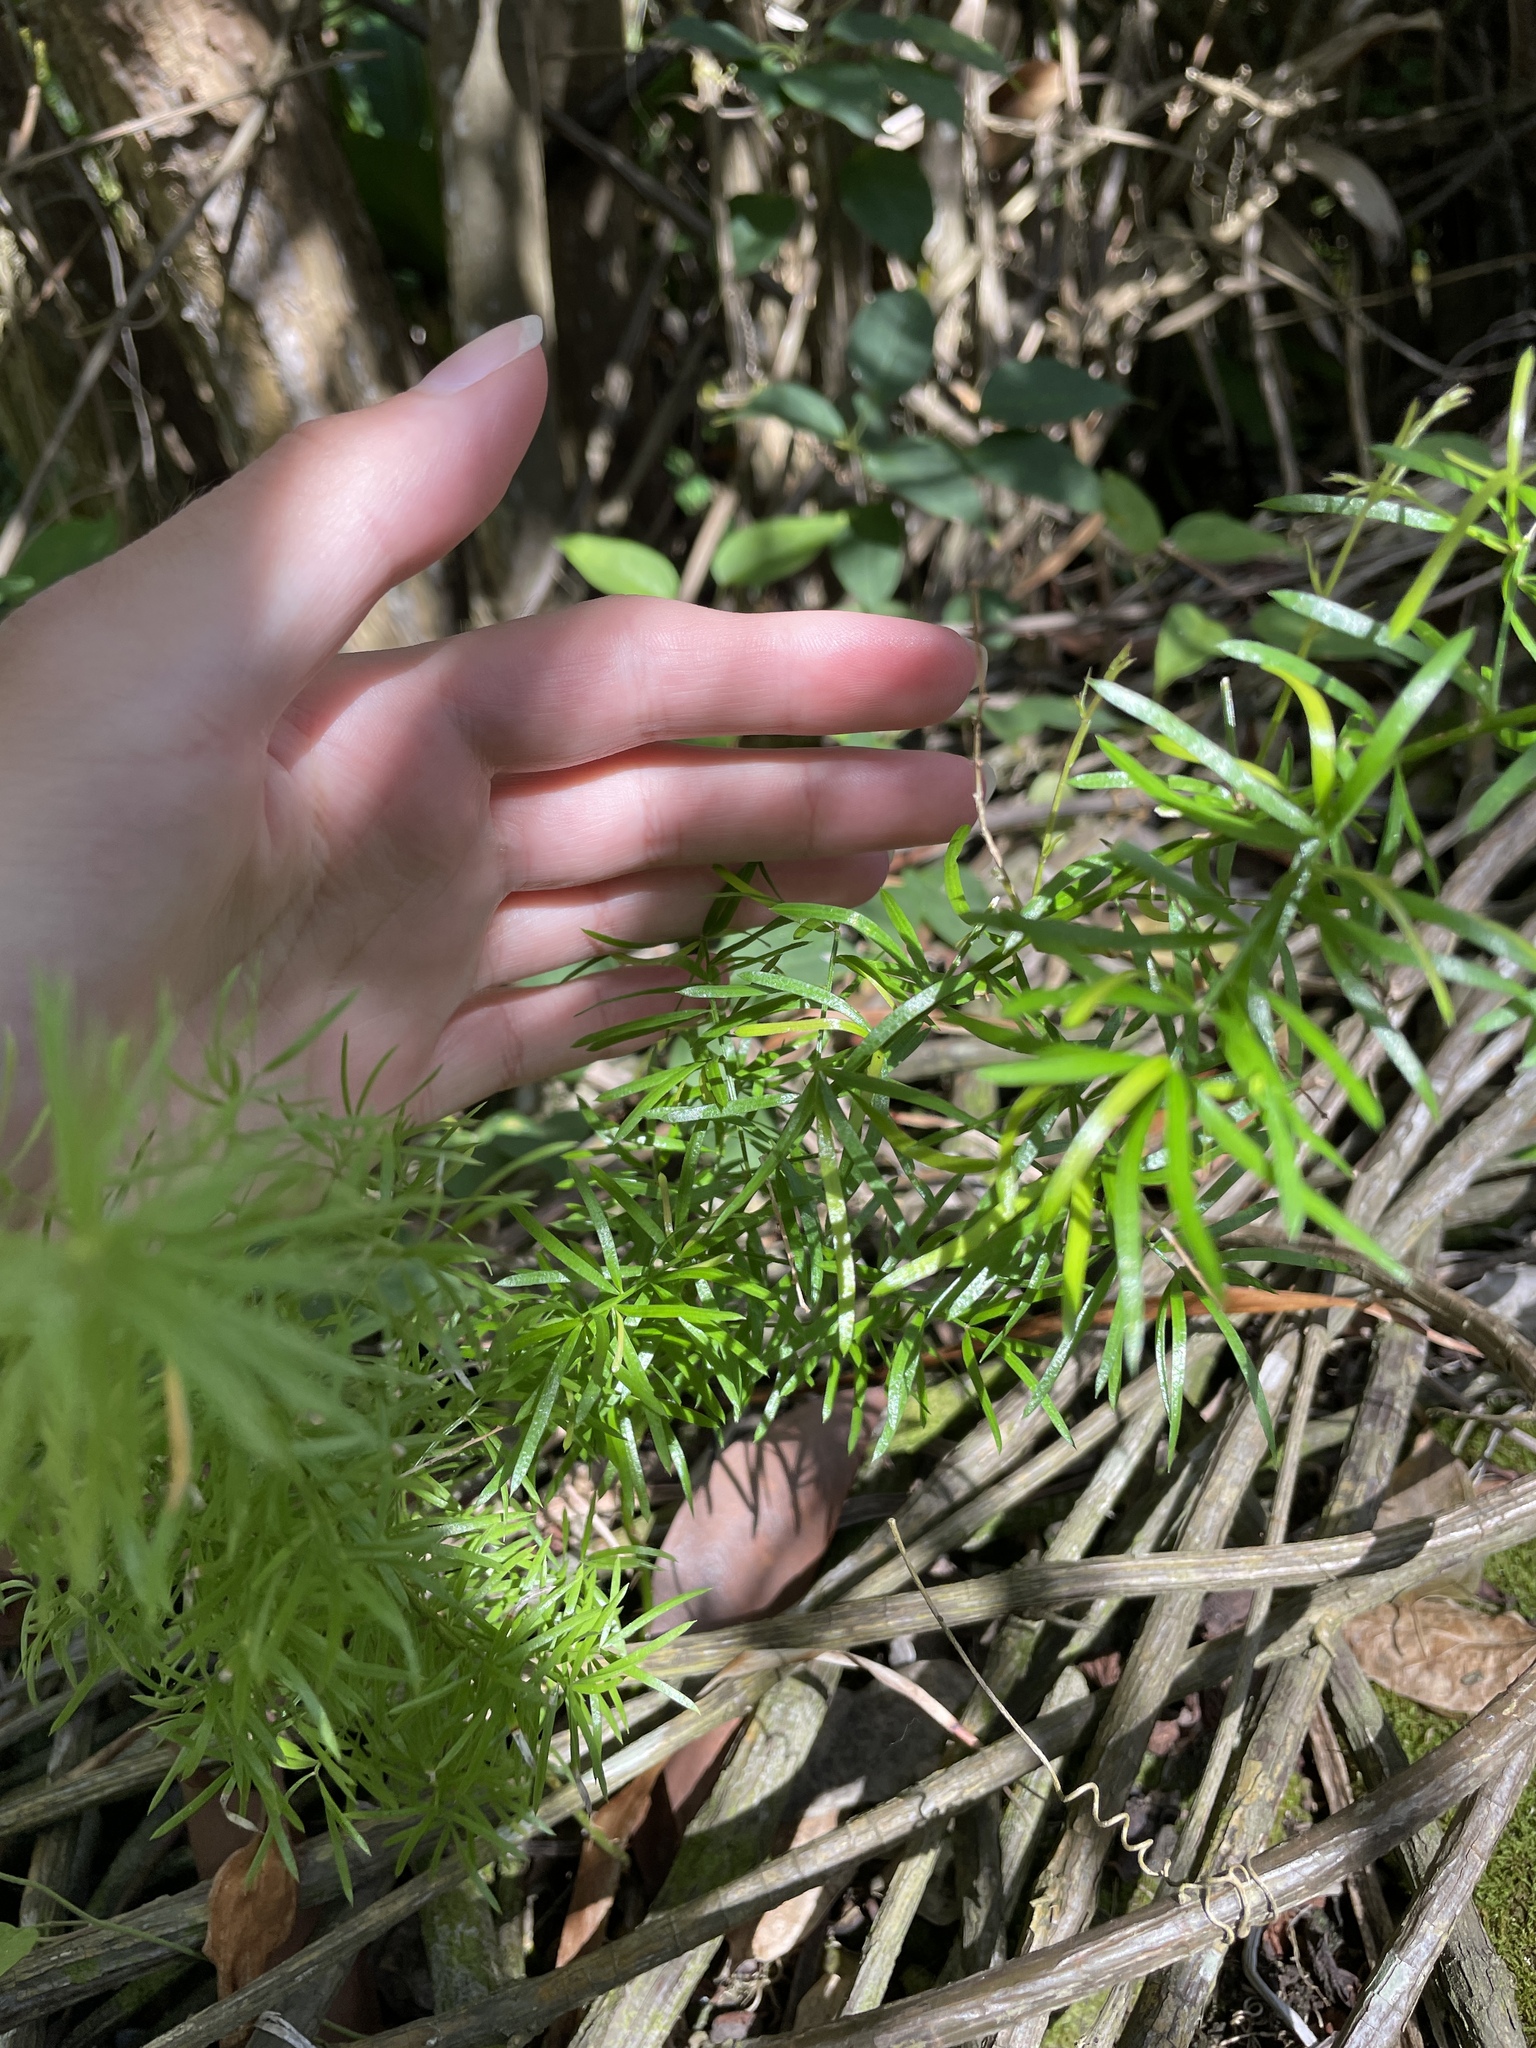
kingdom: Plantae
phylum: Tracheophyta
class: Liliopsida
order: Asparagales
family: Asparagaceae
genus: Asparagus
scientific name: Asparagus aethiopicus
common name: Sprenger's asparagus fern
